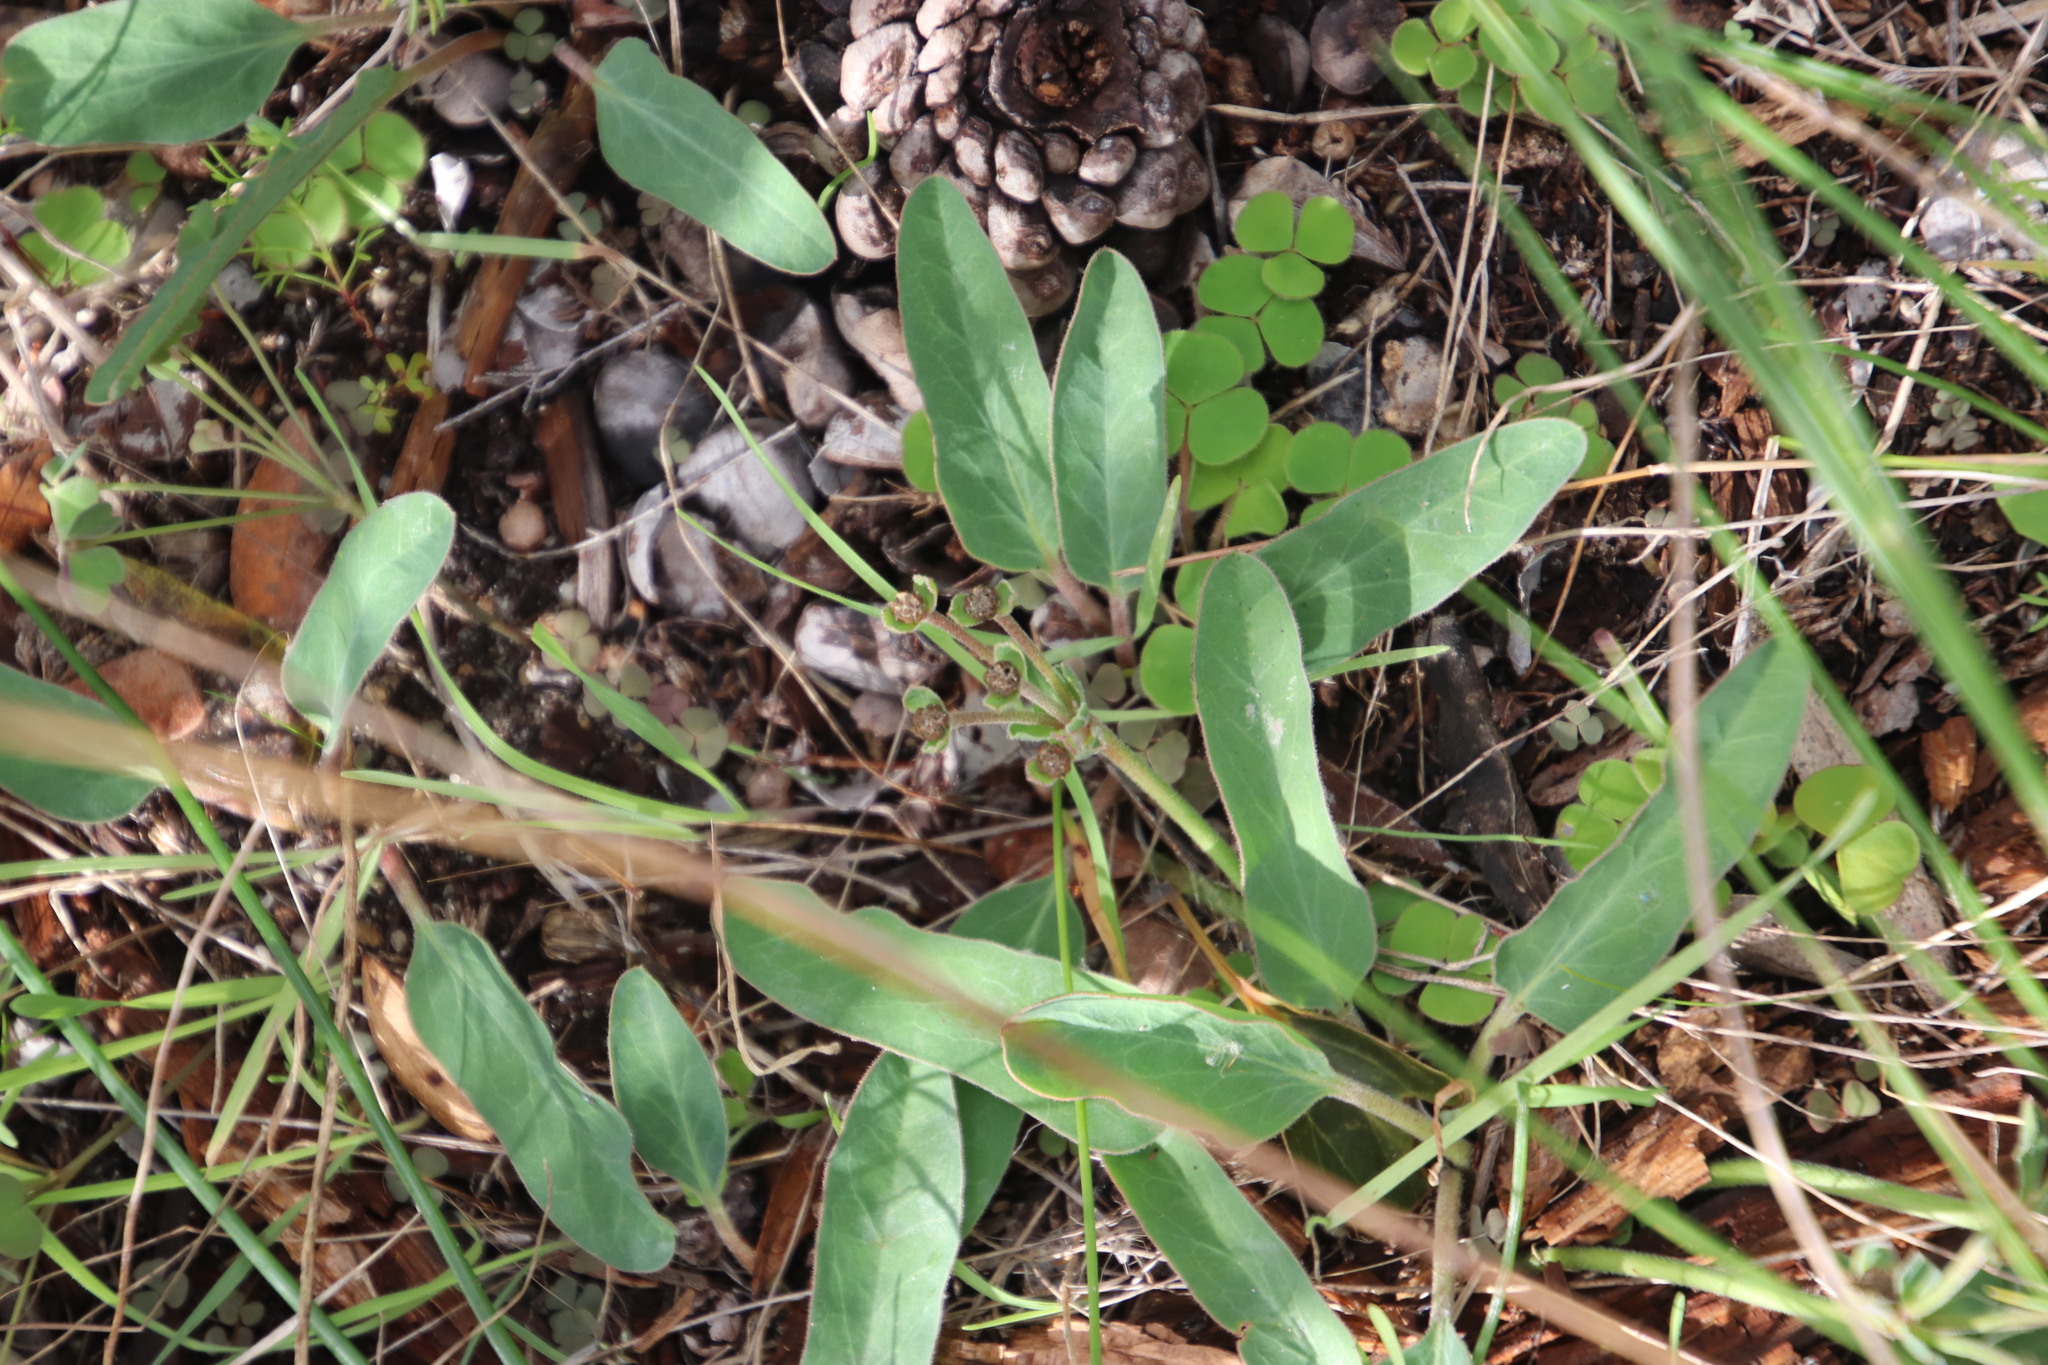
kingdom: Plantae
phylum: Tracheophyta
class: Magnoliopsida
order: Malpighiales
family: Euphorbiaceae
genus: Euphorbia
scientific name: Euphorbia tuberosa
